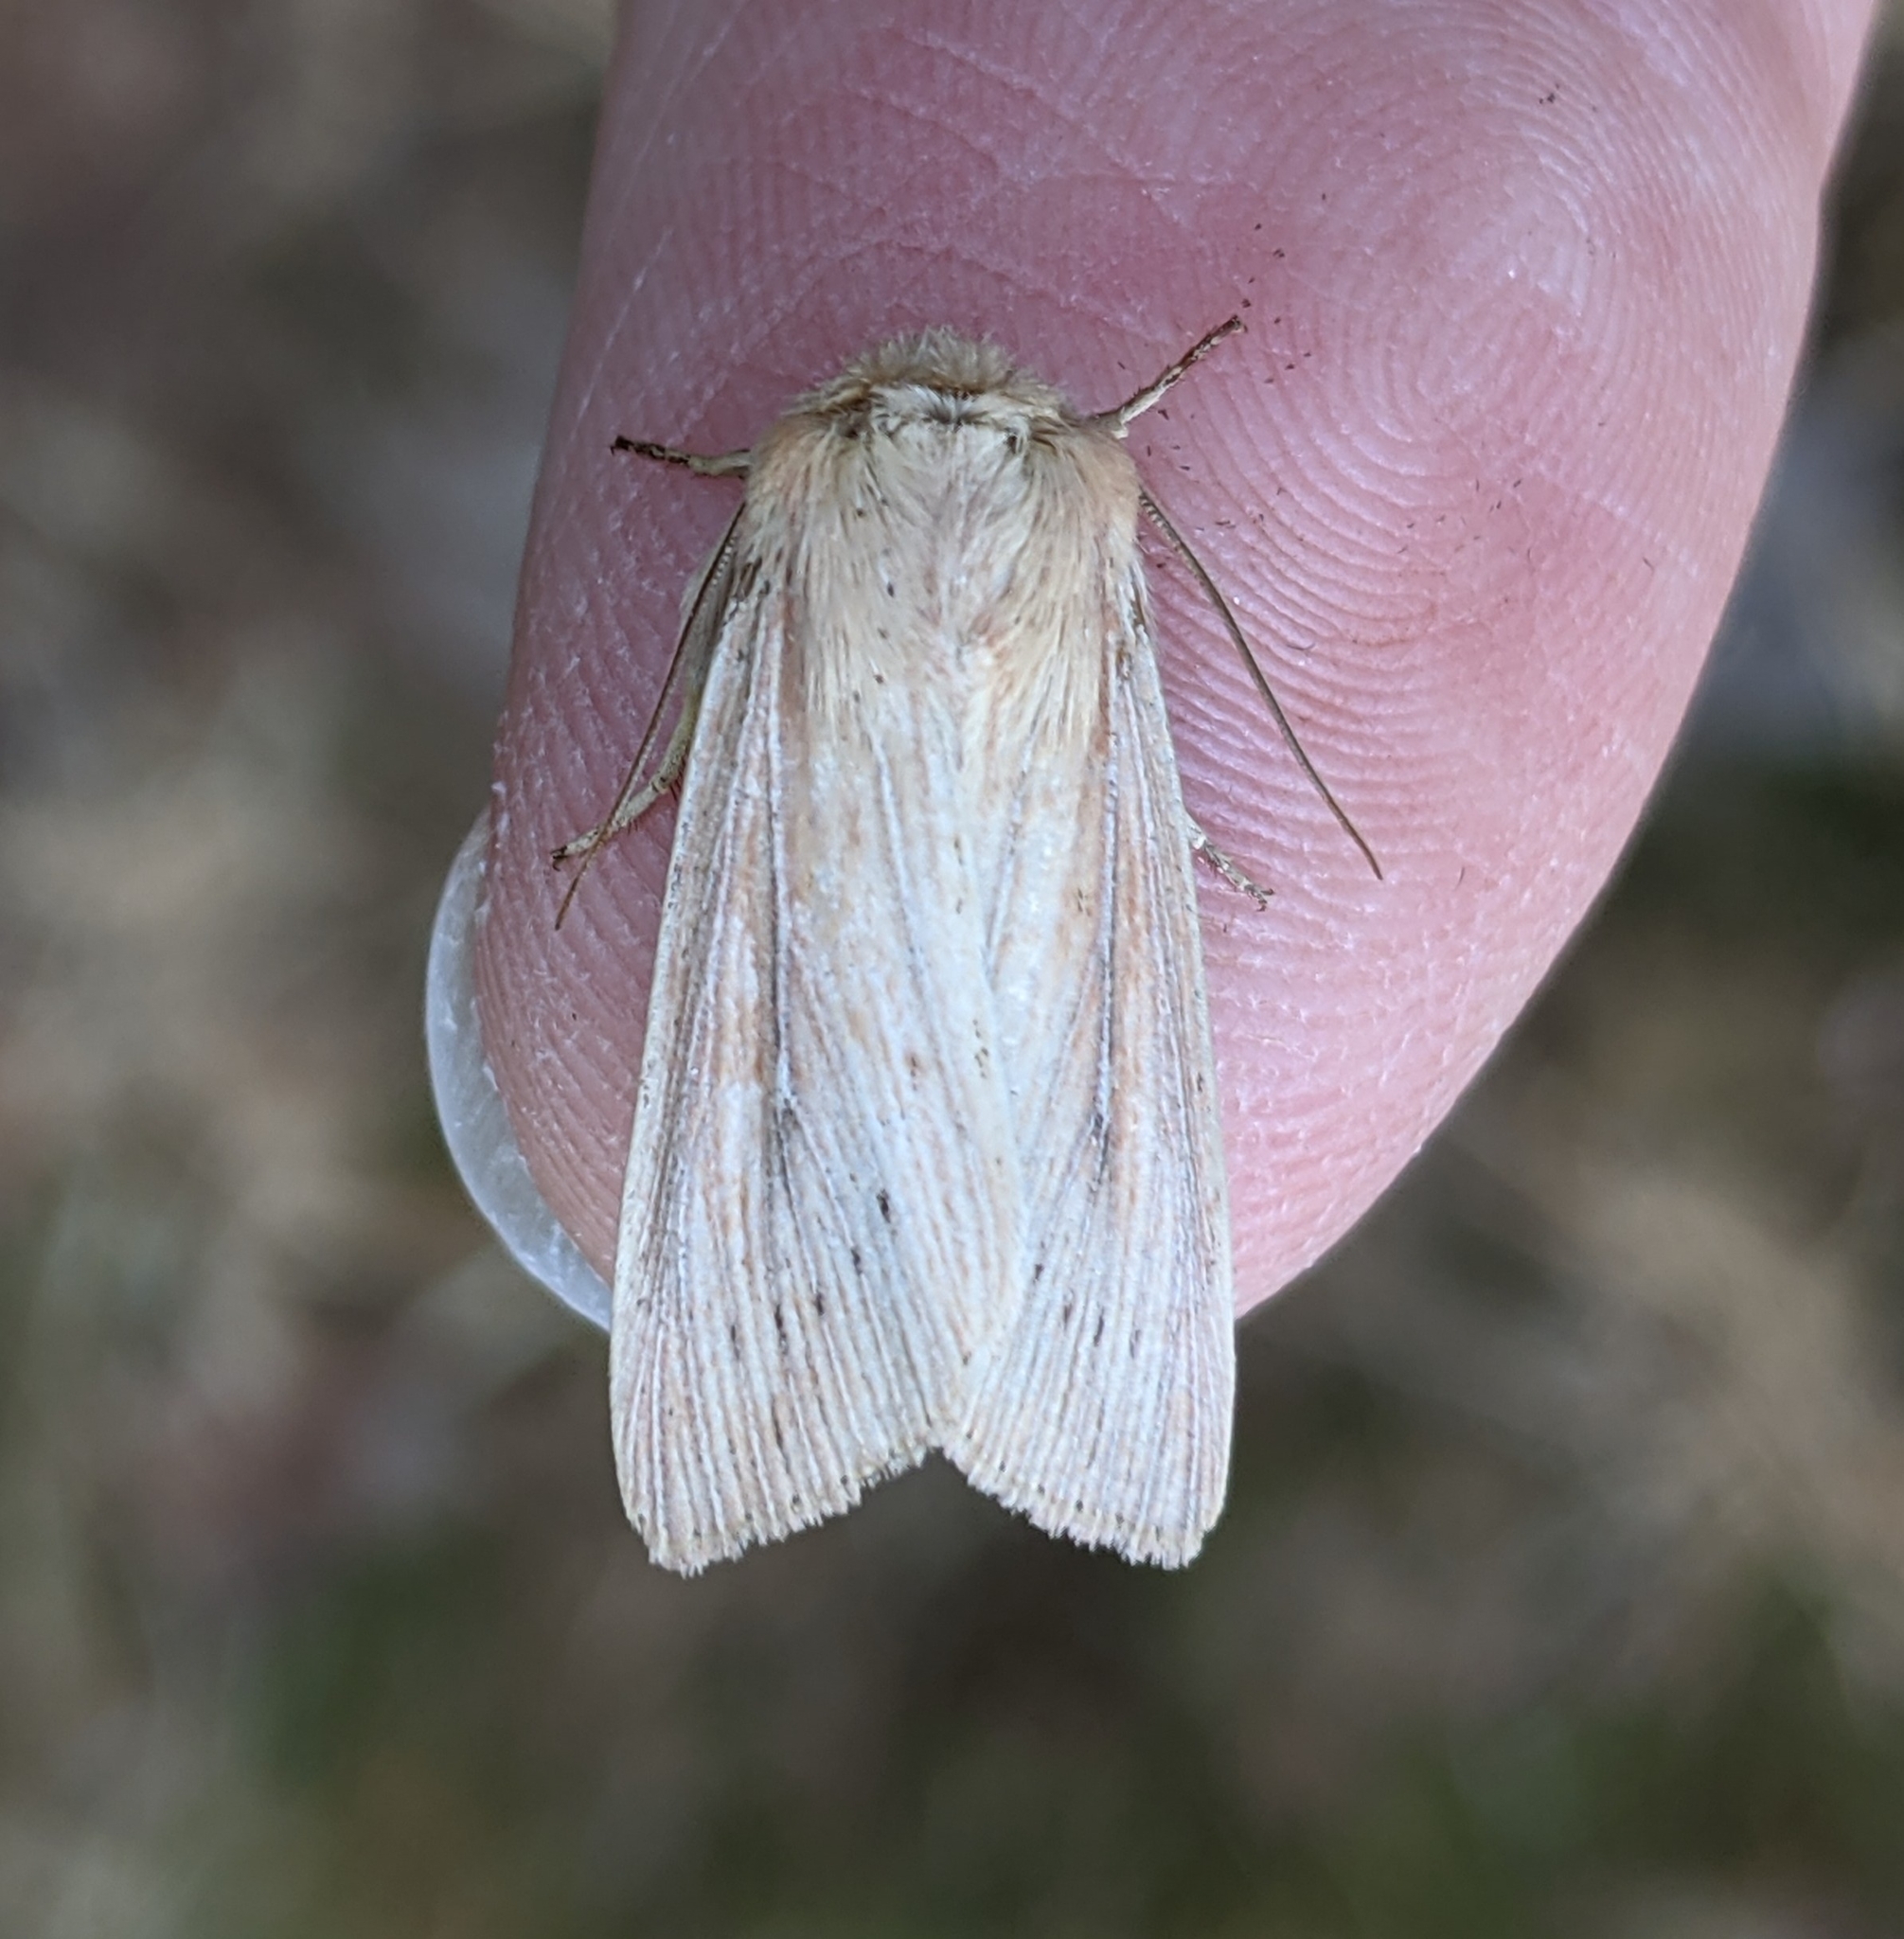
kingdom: Animalia
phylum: Arthropoda
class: Insecta
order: Lepidoptera
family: Noctuidae
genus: Leucania
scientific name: Leucania farcta
